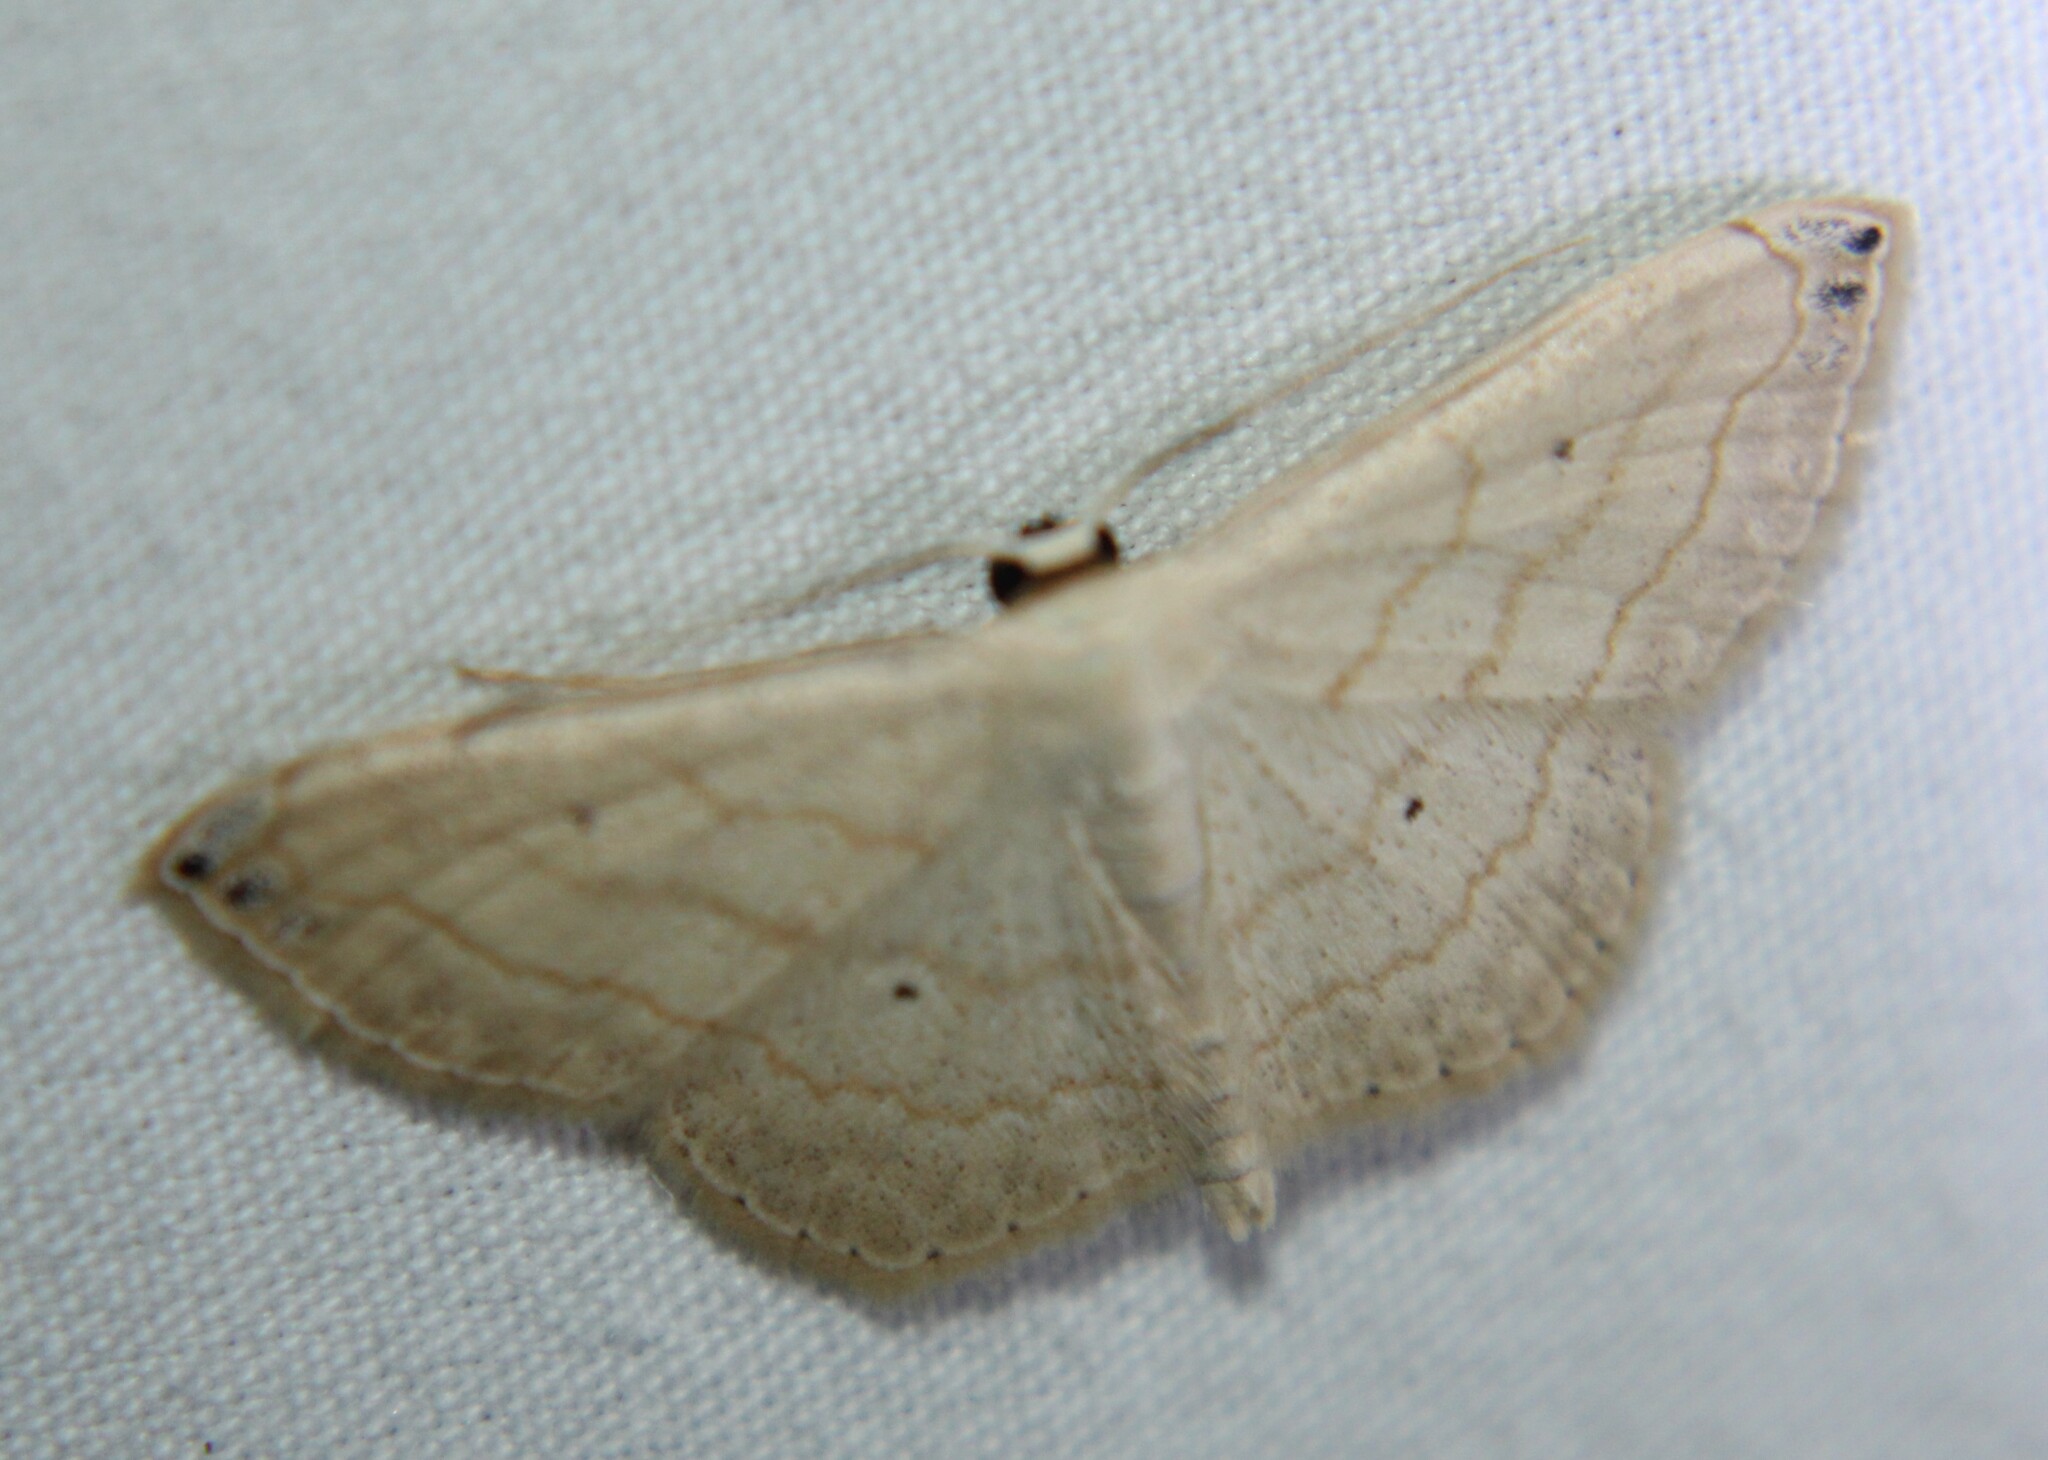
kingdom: Animalia
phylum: Arthropoda
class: Insecta
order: Lepidoptera
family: Geometridae
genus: Scopula
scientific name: Scopula umbilicata
